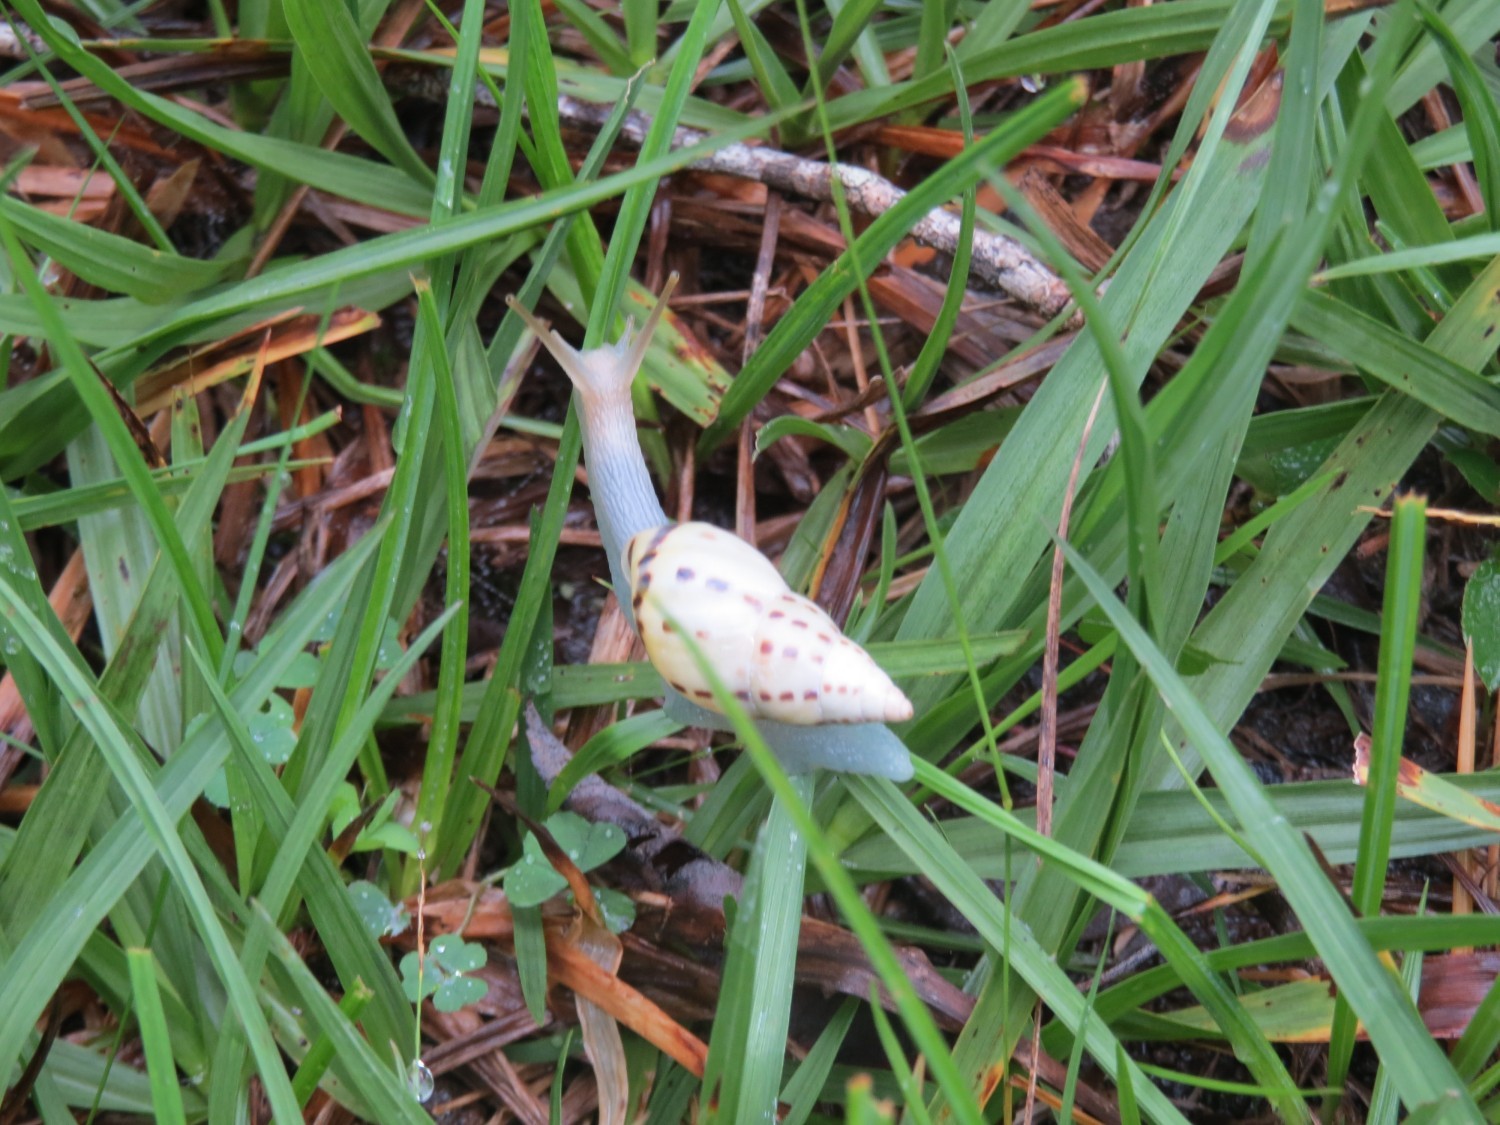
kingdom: Animalia
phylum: Mollusca
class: Gastropoda
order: Stylommatophora
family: Bulimulidae
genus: Drymaeus
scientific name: Drymaeus
